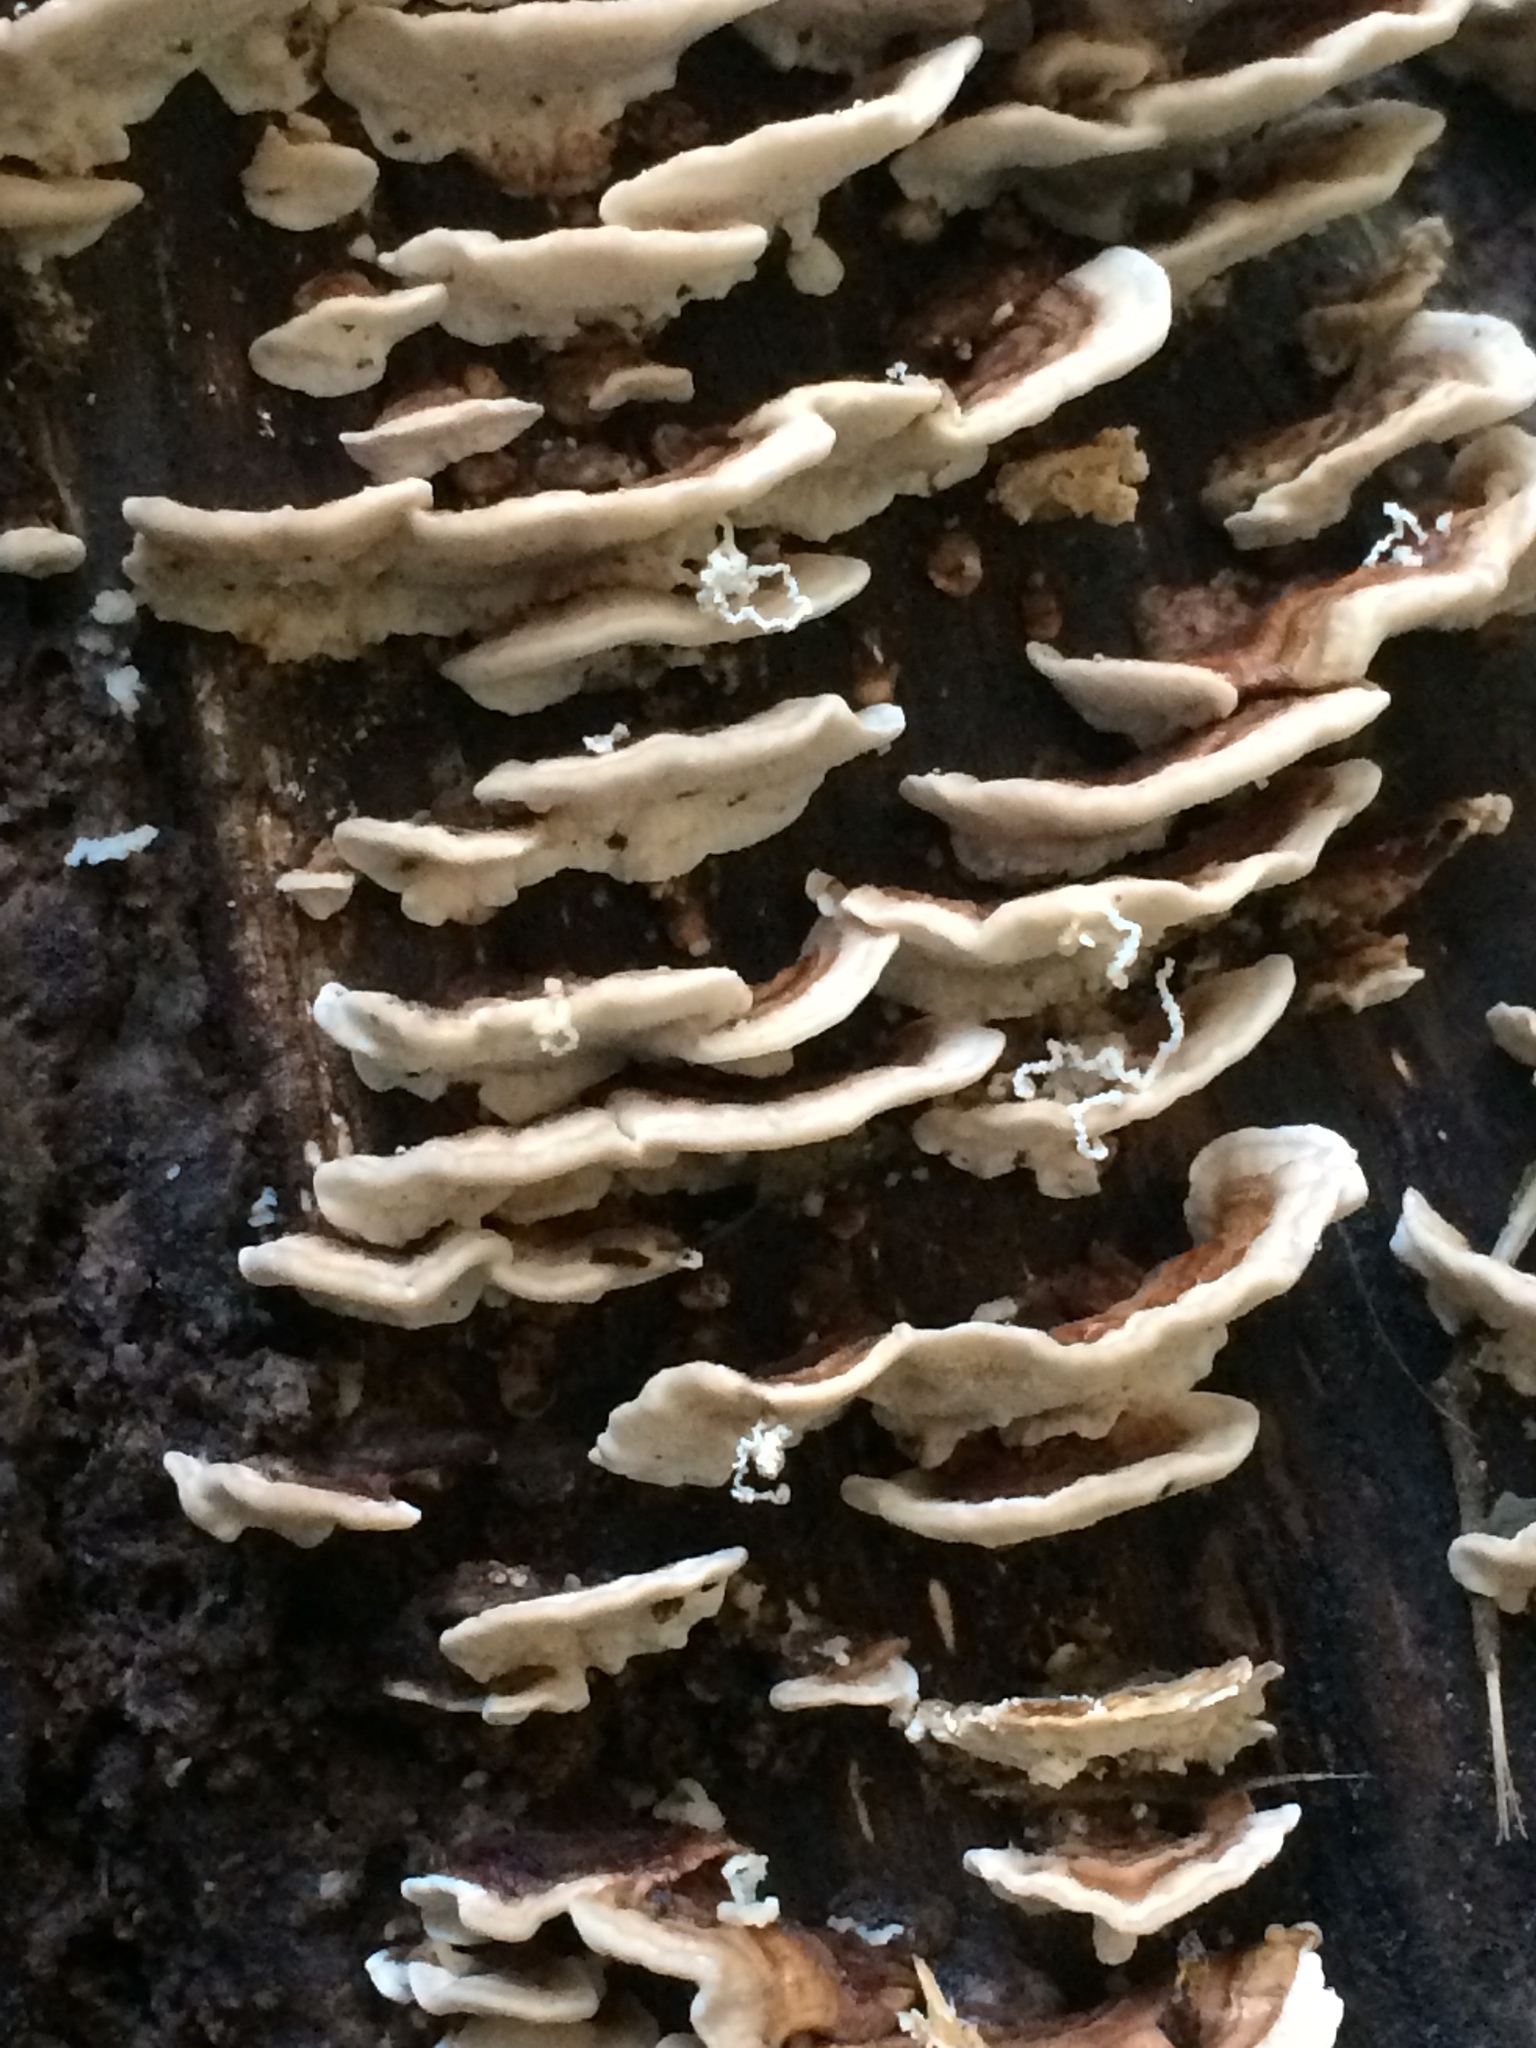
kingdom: Fungi
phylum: Basidiomycota
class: Agaricomycetes
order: Polyporales
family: Polyporaceae
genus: Trametes
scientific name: Trametes versicolor
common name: Turkeytail
